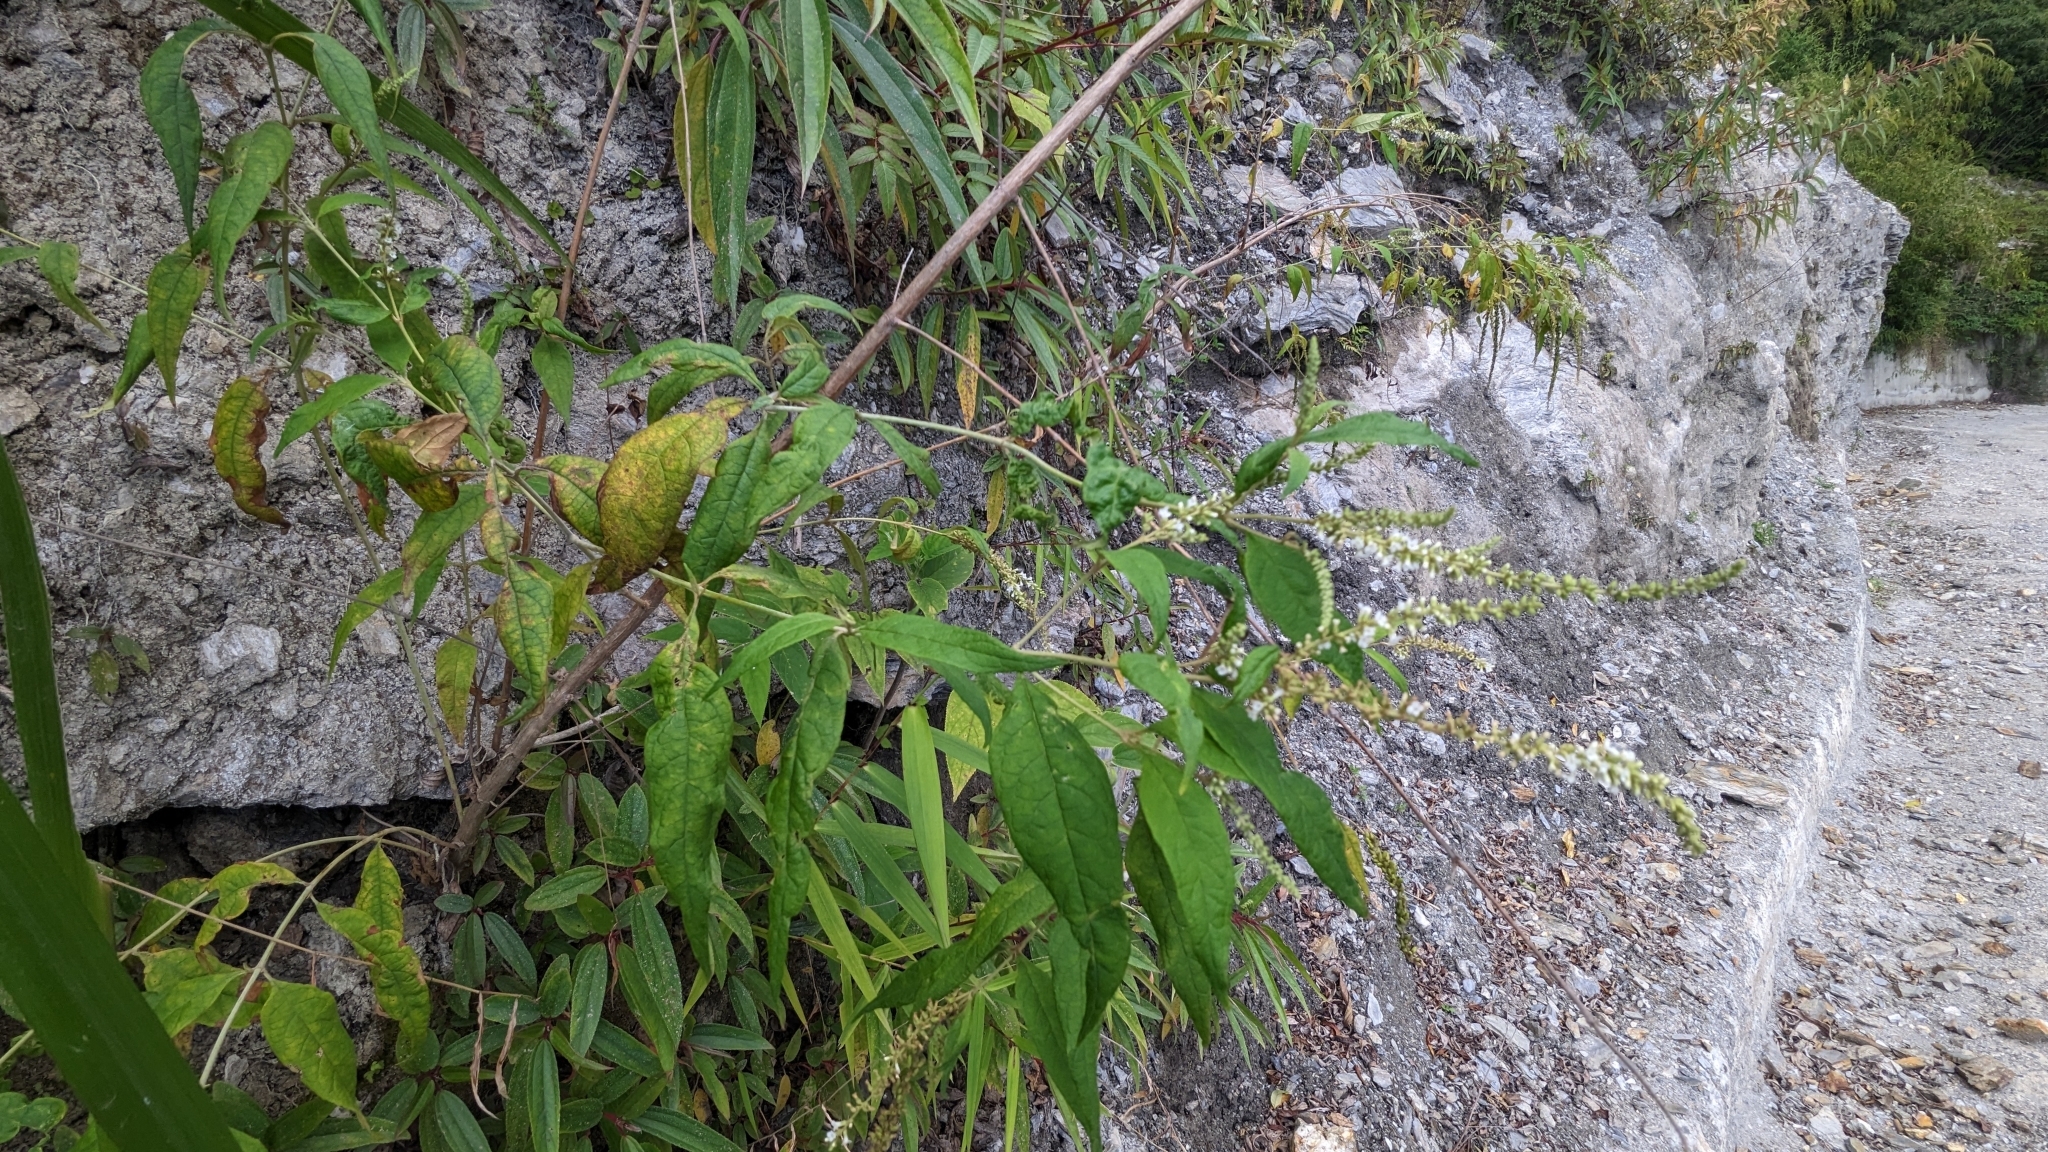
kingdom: Plantae
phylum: Tracheophyta
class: Magnoliopsida
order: Lamiales
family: Scrophulariaceae
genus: Buddleja
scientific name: Buddleja asiatica
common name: Dog tail
